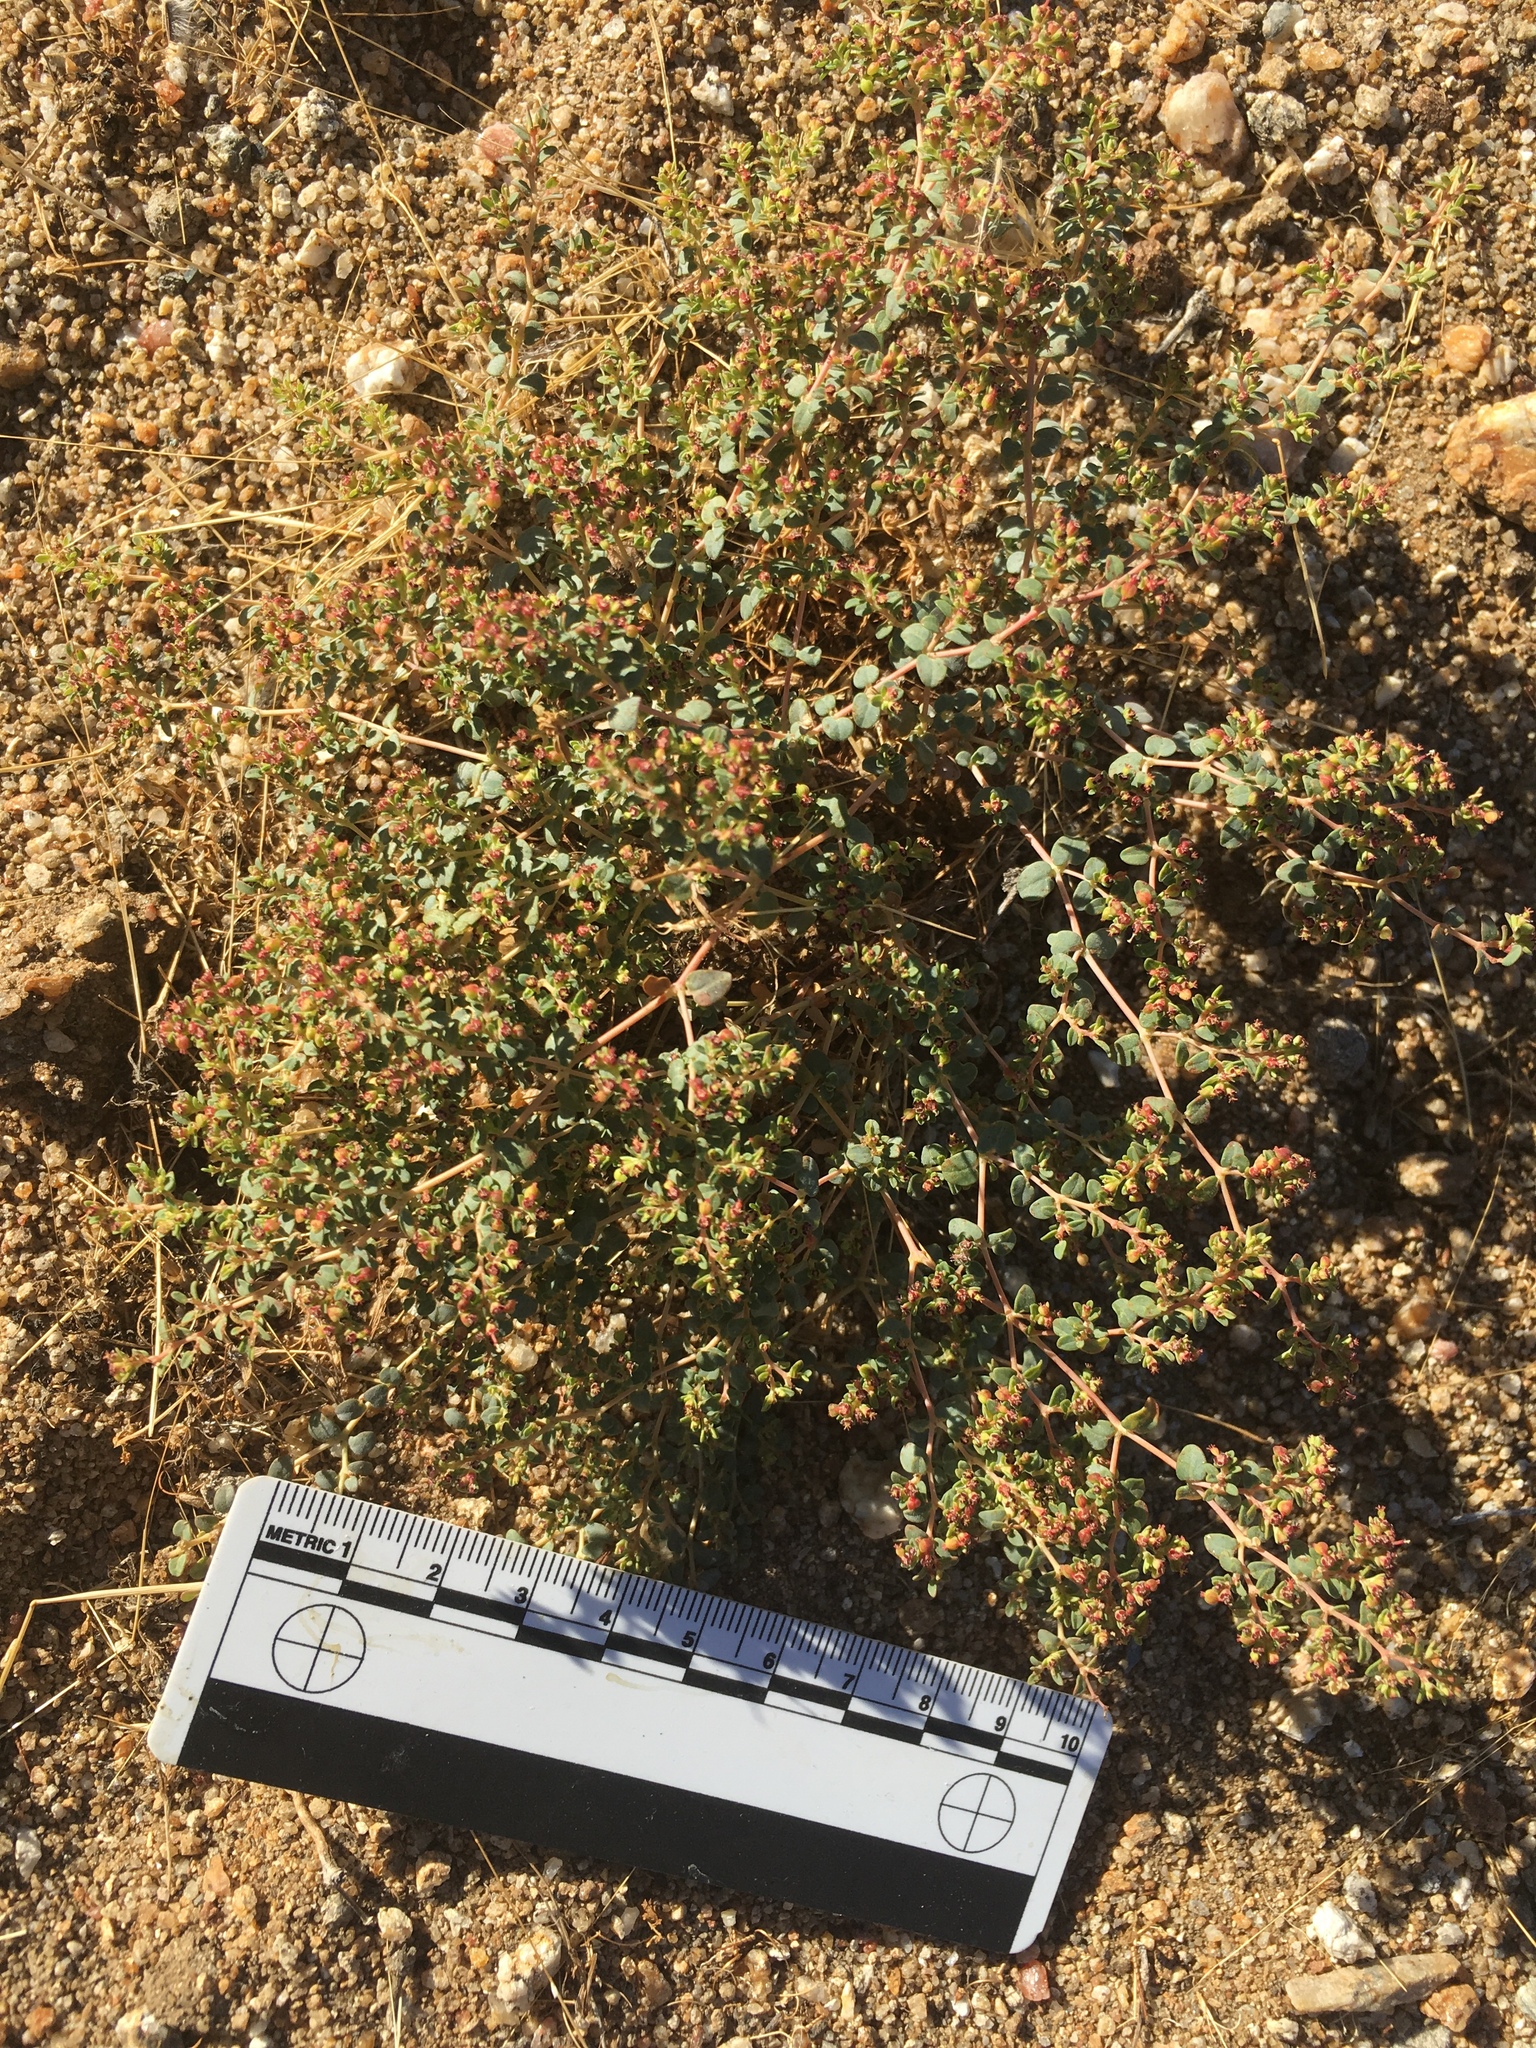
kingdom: Plantae
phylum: Tracheophyta
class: Magnoliopsida
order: Malpighiales
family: Euphorbiaceae
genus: Euphorbia
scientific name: Euphorbia polycarpa
